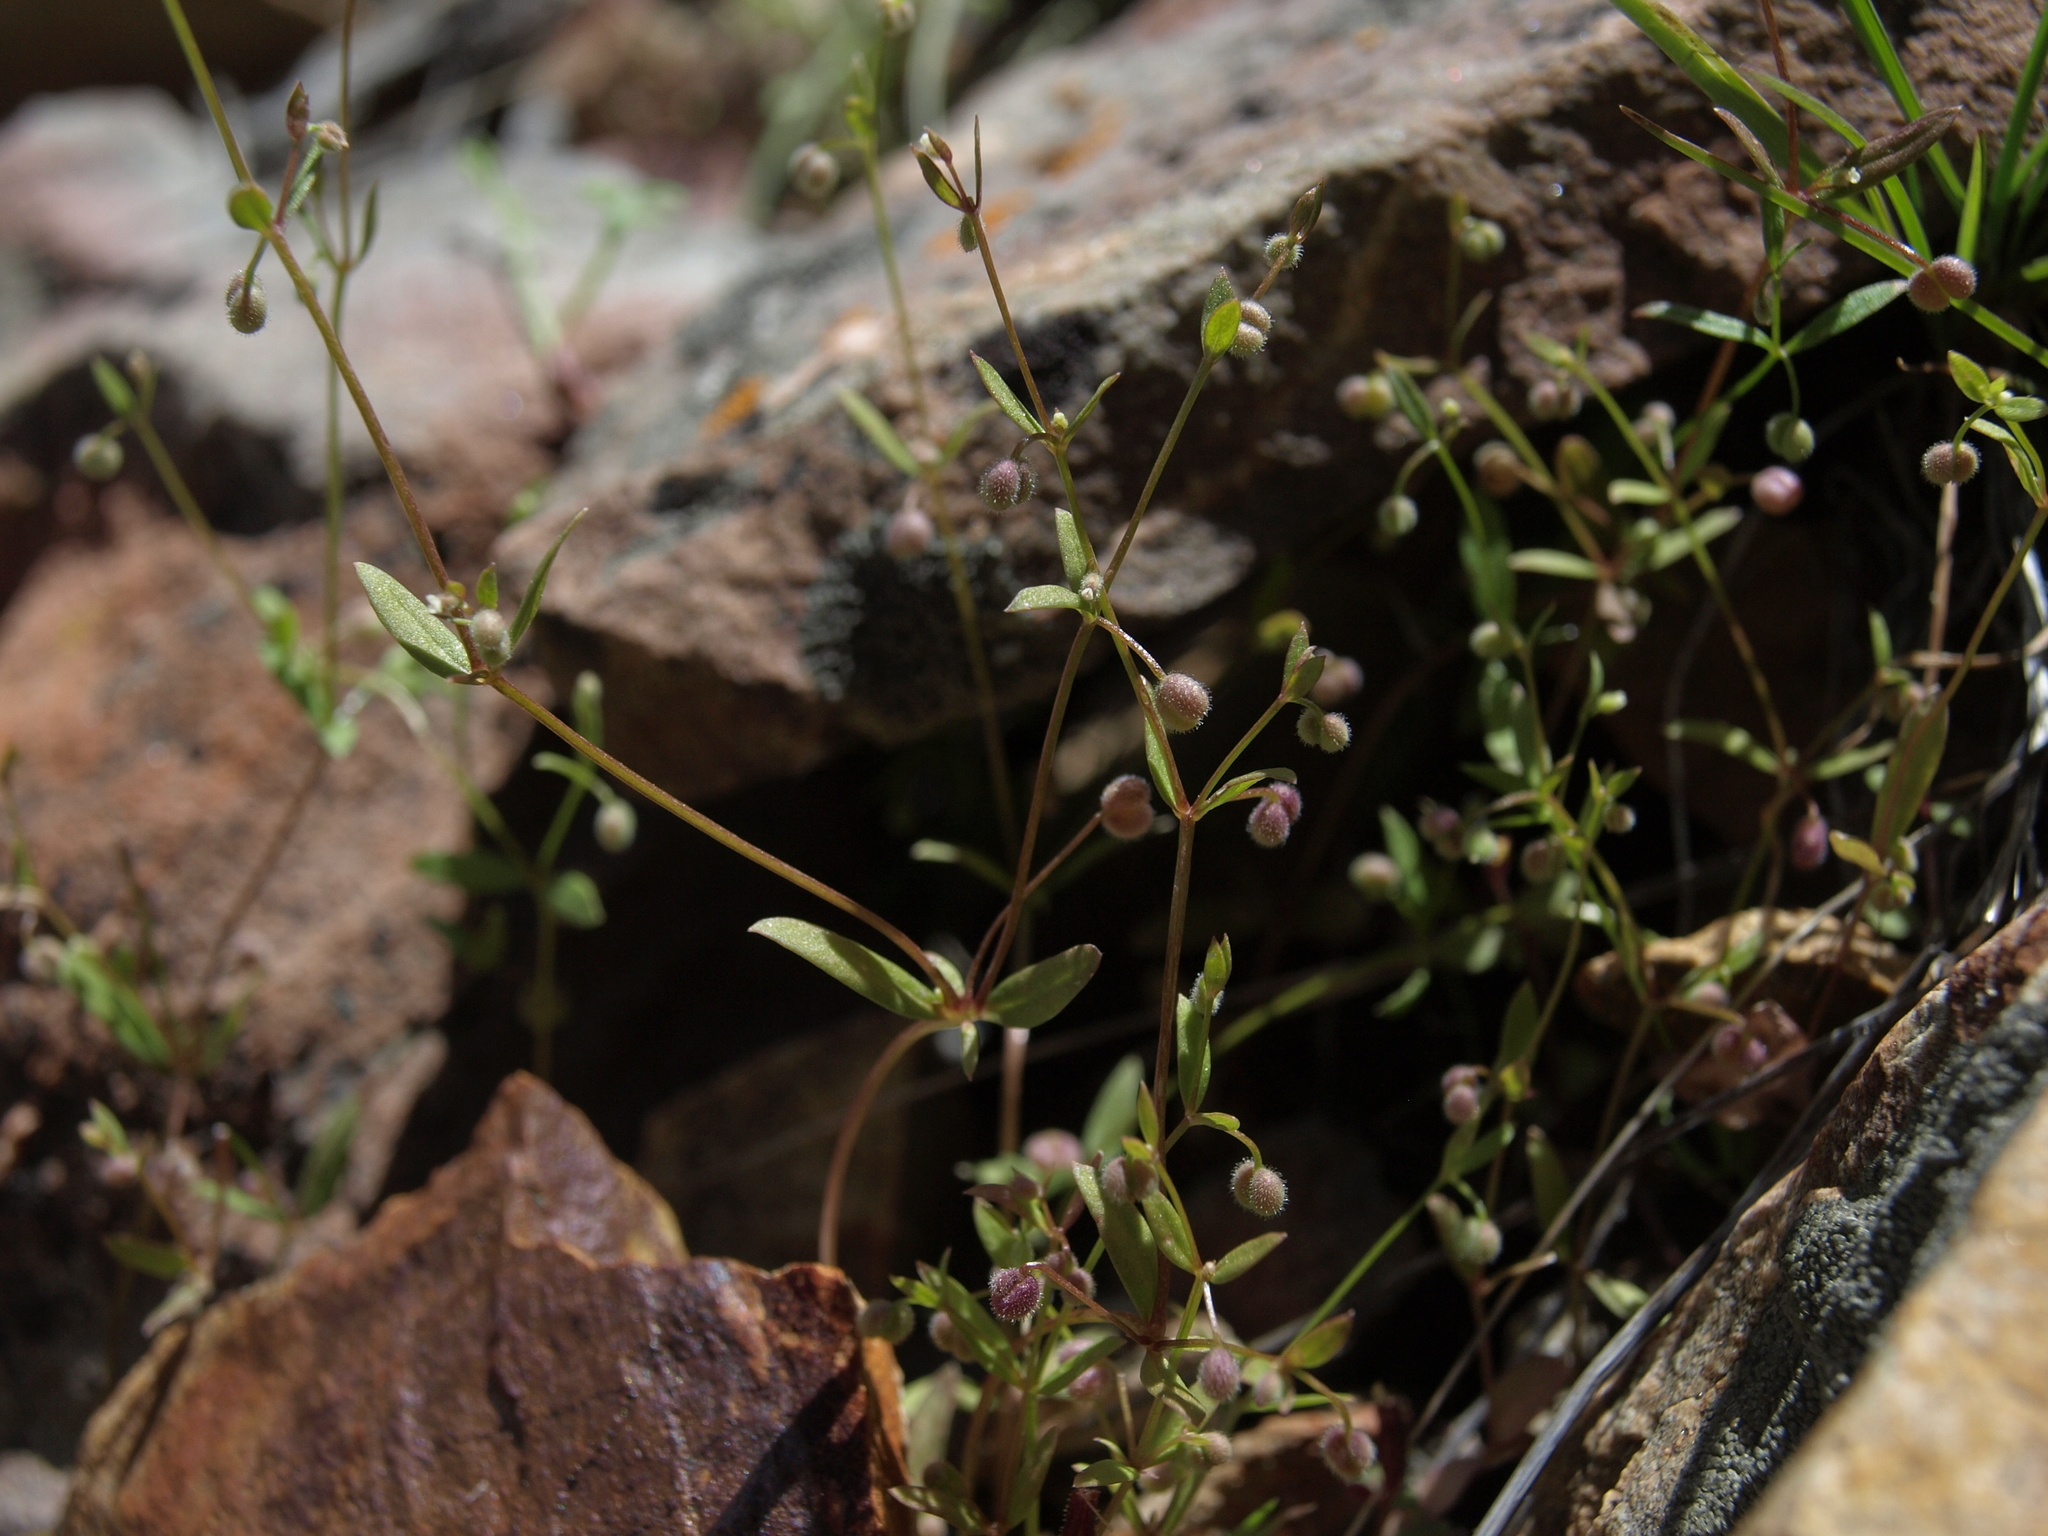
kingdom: Plantae
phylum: Tracheophyta
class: Magnoliopsida
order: Gentianales
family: Rubiaceae
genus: Galium
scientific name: Galium bifolium
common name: Low mountain bedstraw
